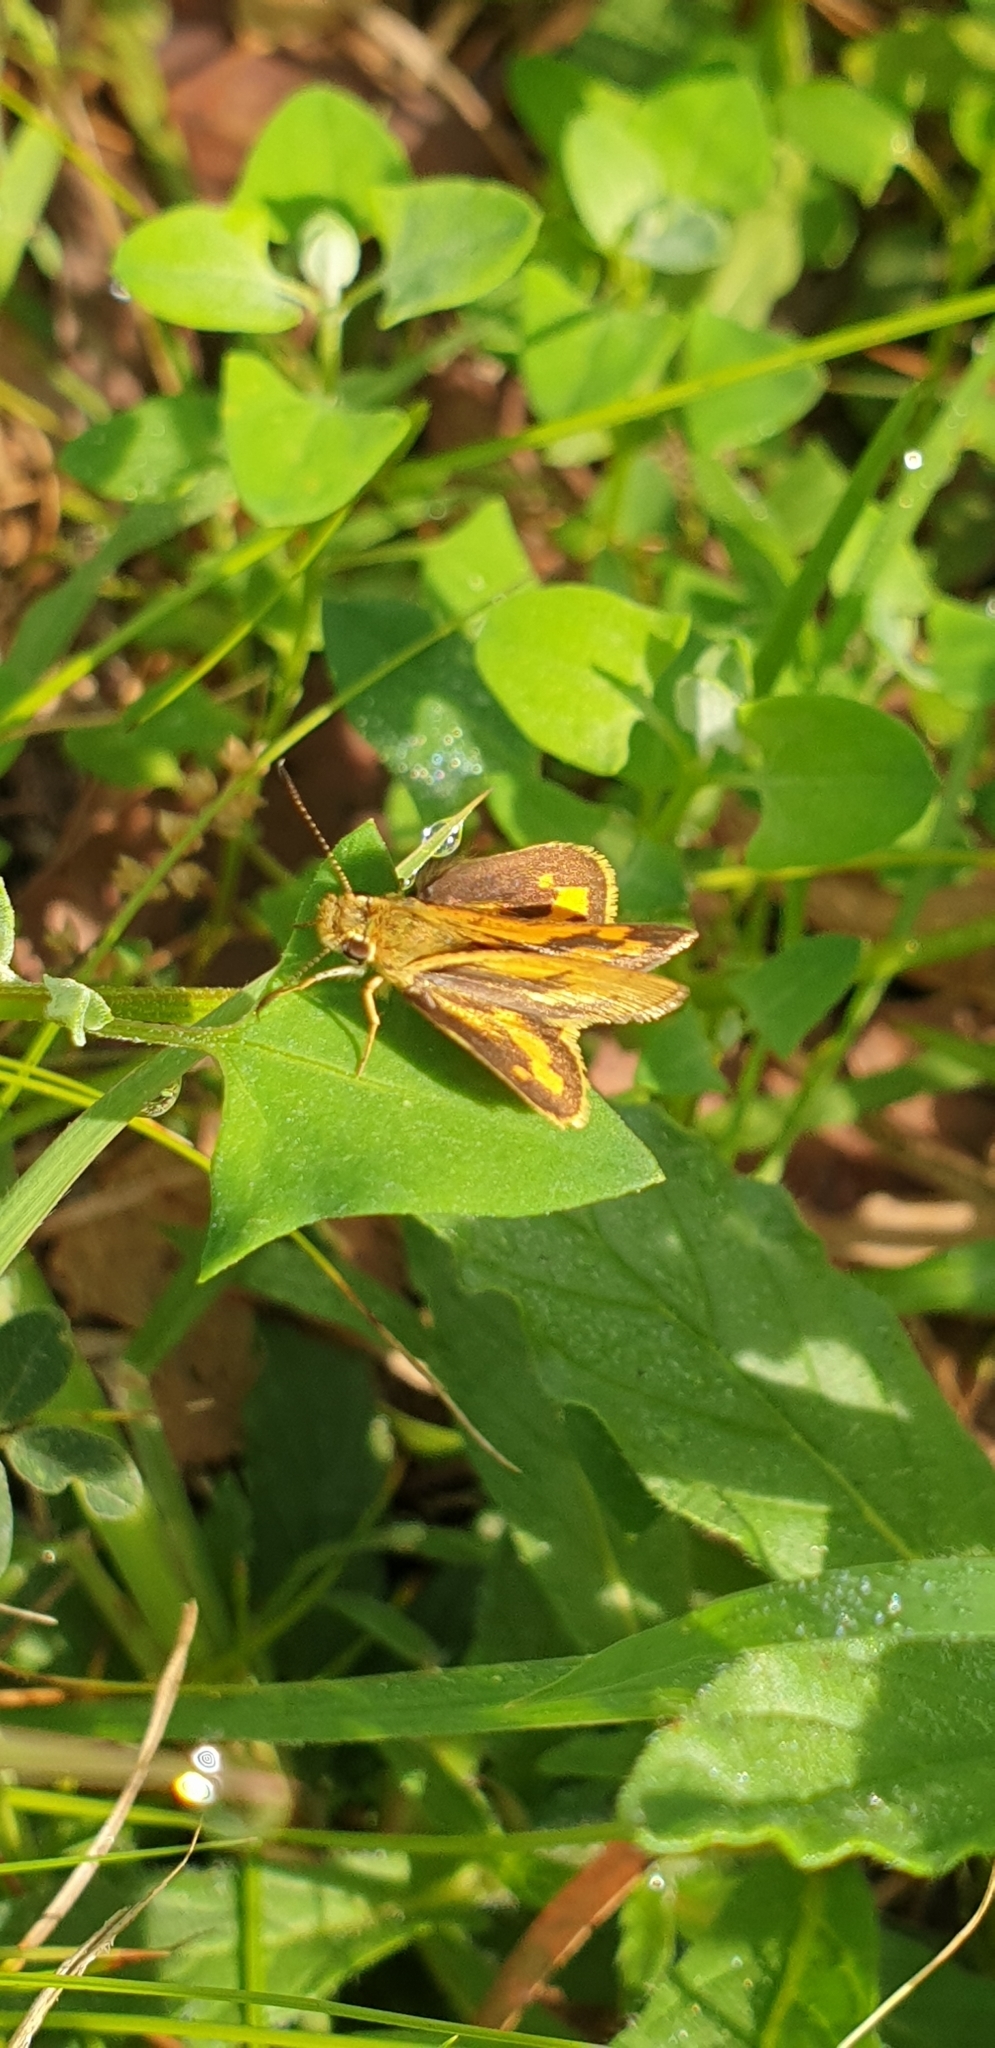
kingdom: Animalia
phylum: Arthropoda
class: Insecta
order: Lepidoptera
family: Hesperiidae
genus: Ocybadistes
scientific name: Ocybadistes walkeri
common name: Yellow-banded dart
